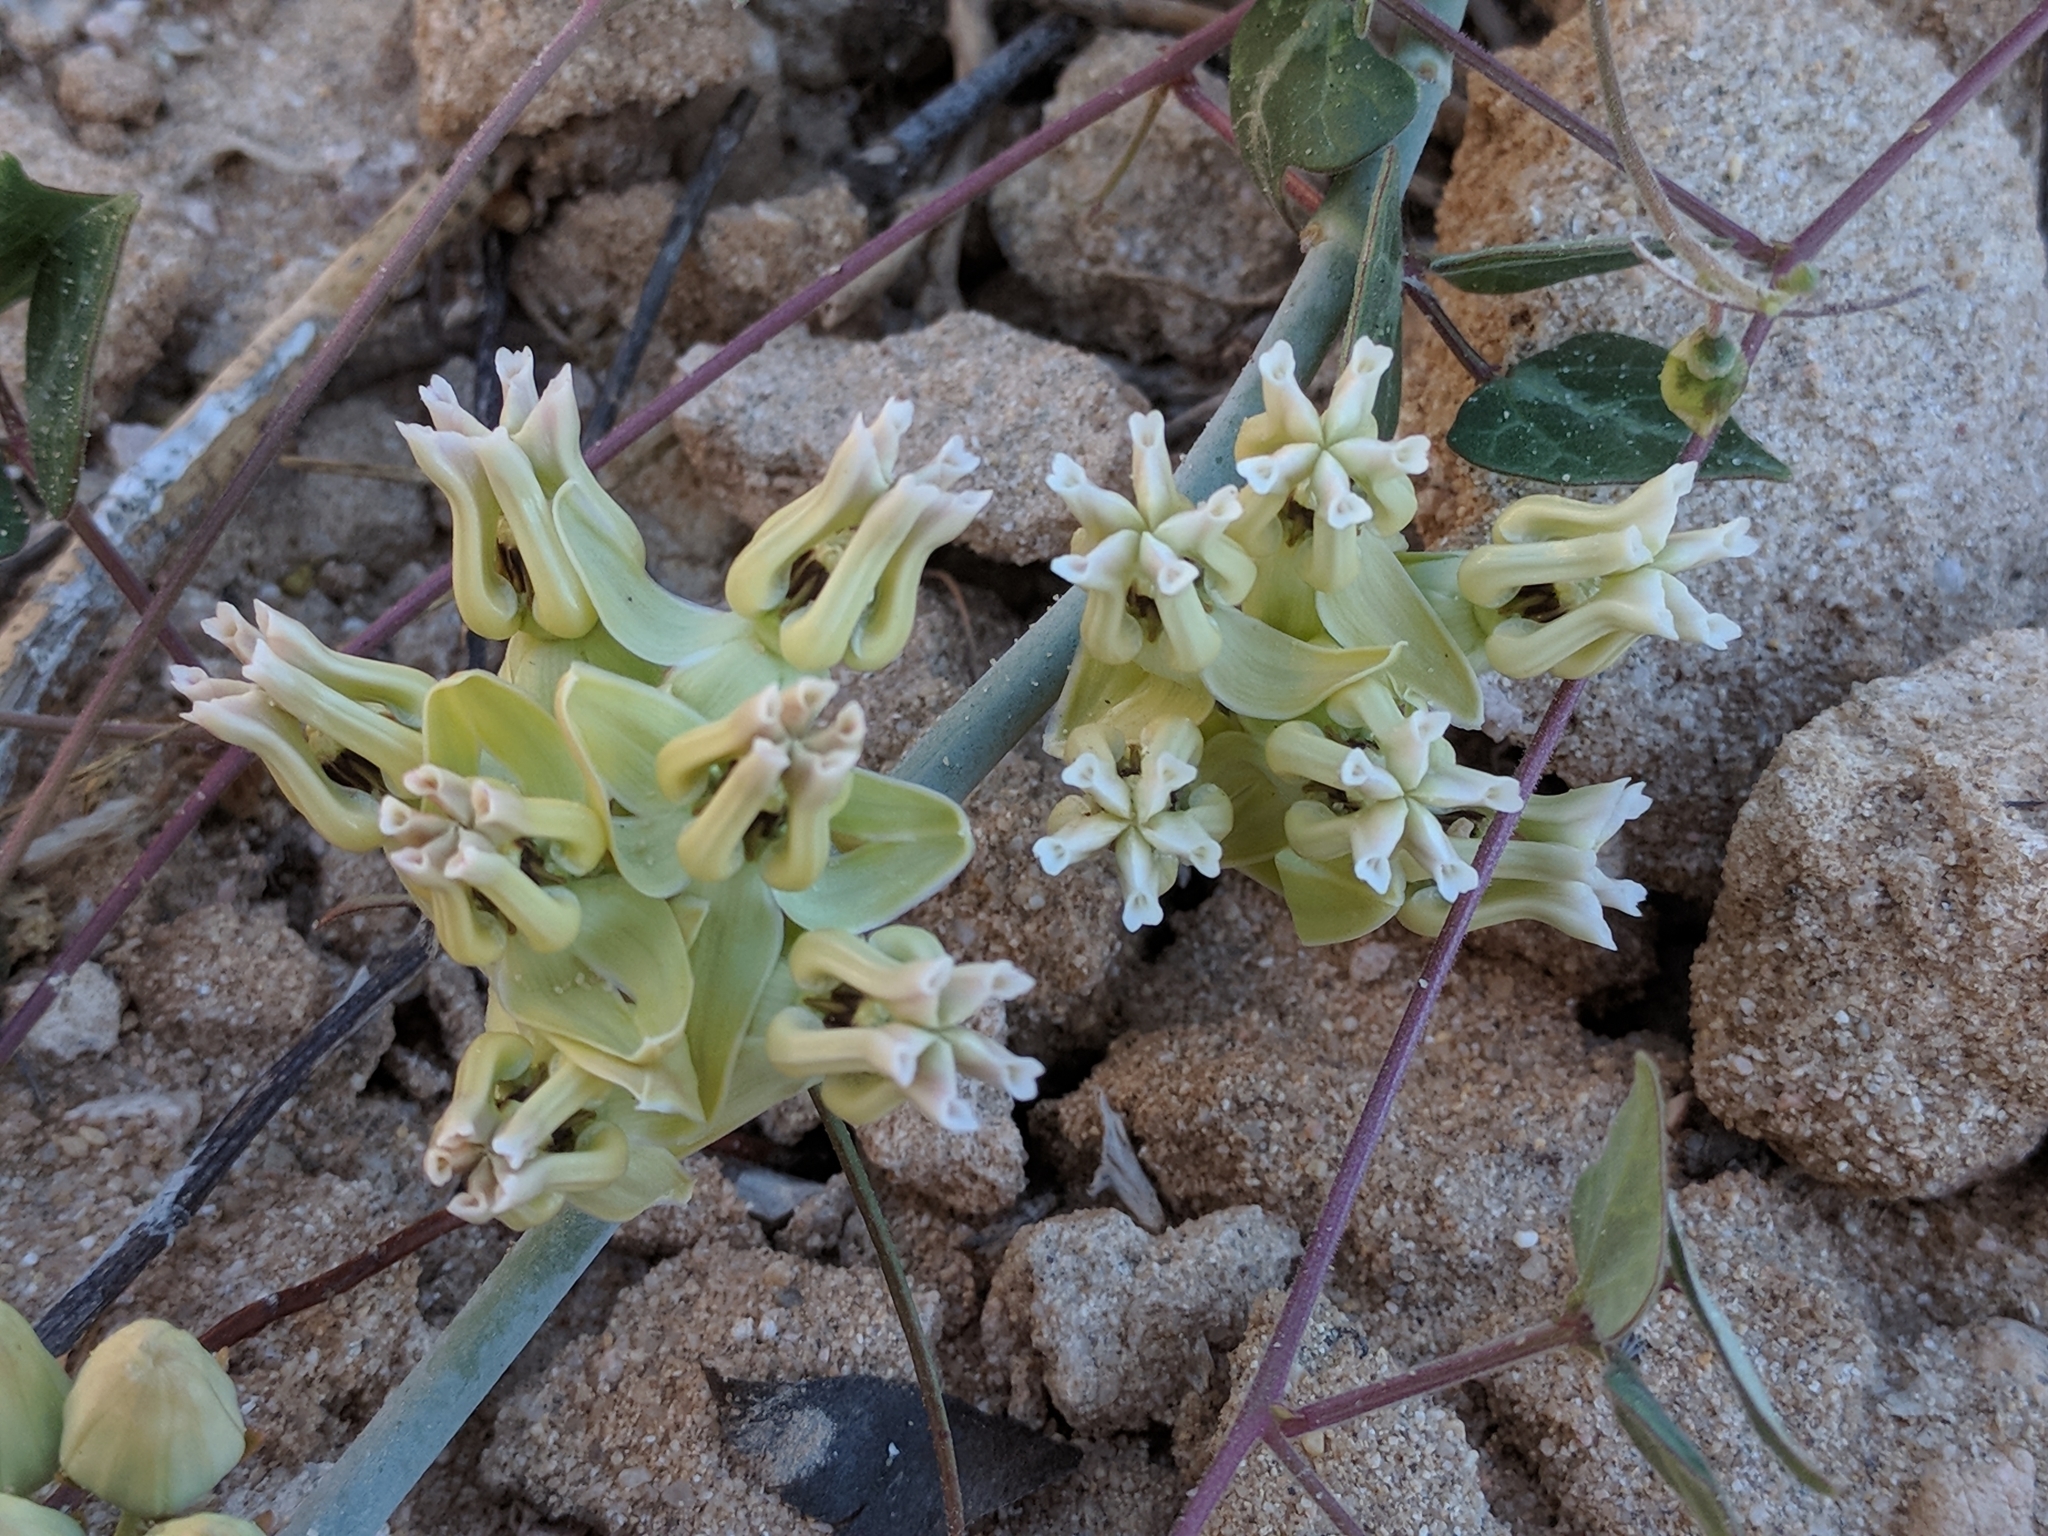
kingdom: Plantae
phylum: Tracheophyta
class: Magnoliopsida
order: Gentianales
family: Apocynaceae
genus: Asclepias
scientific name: Asclepias subulata
